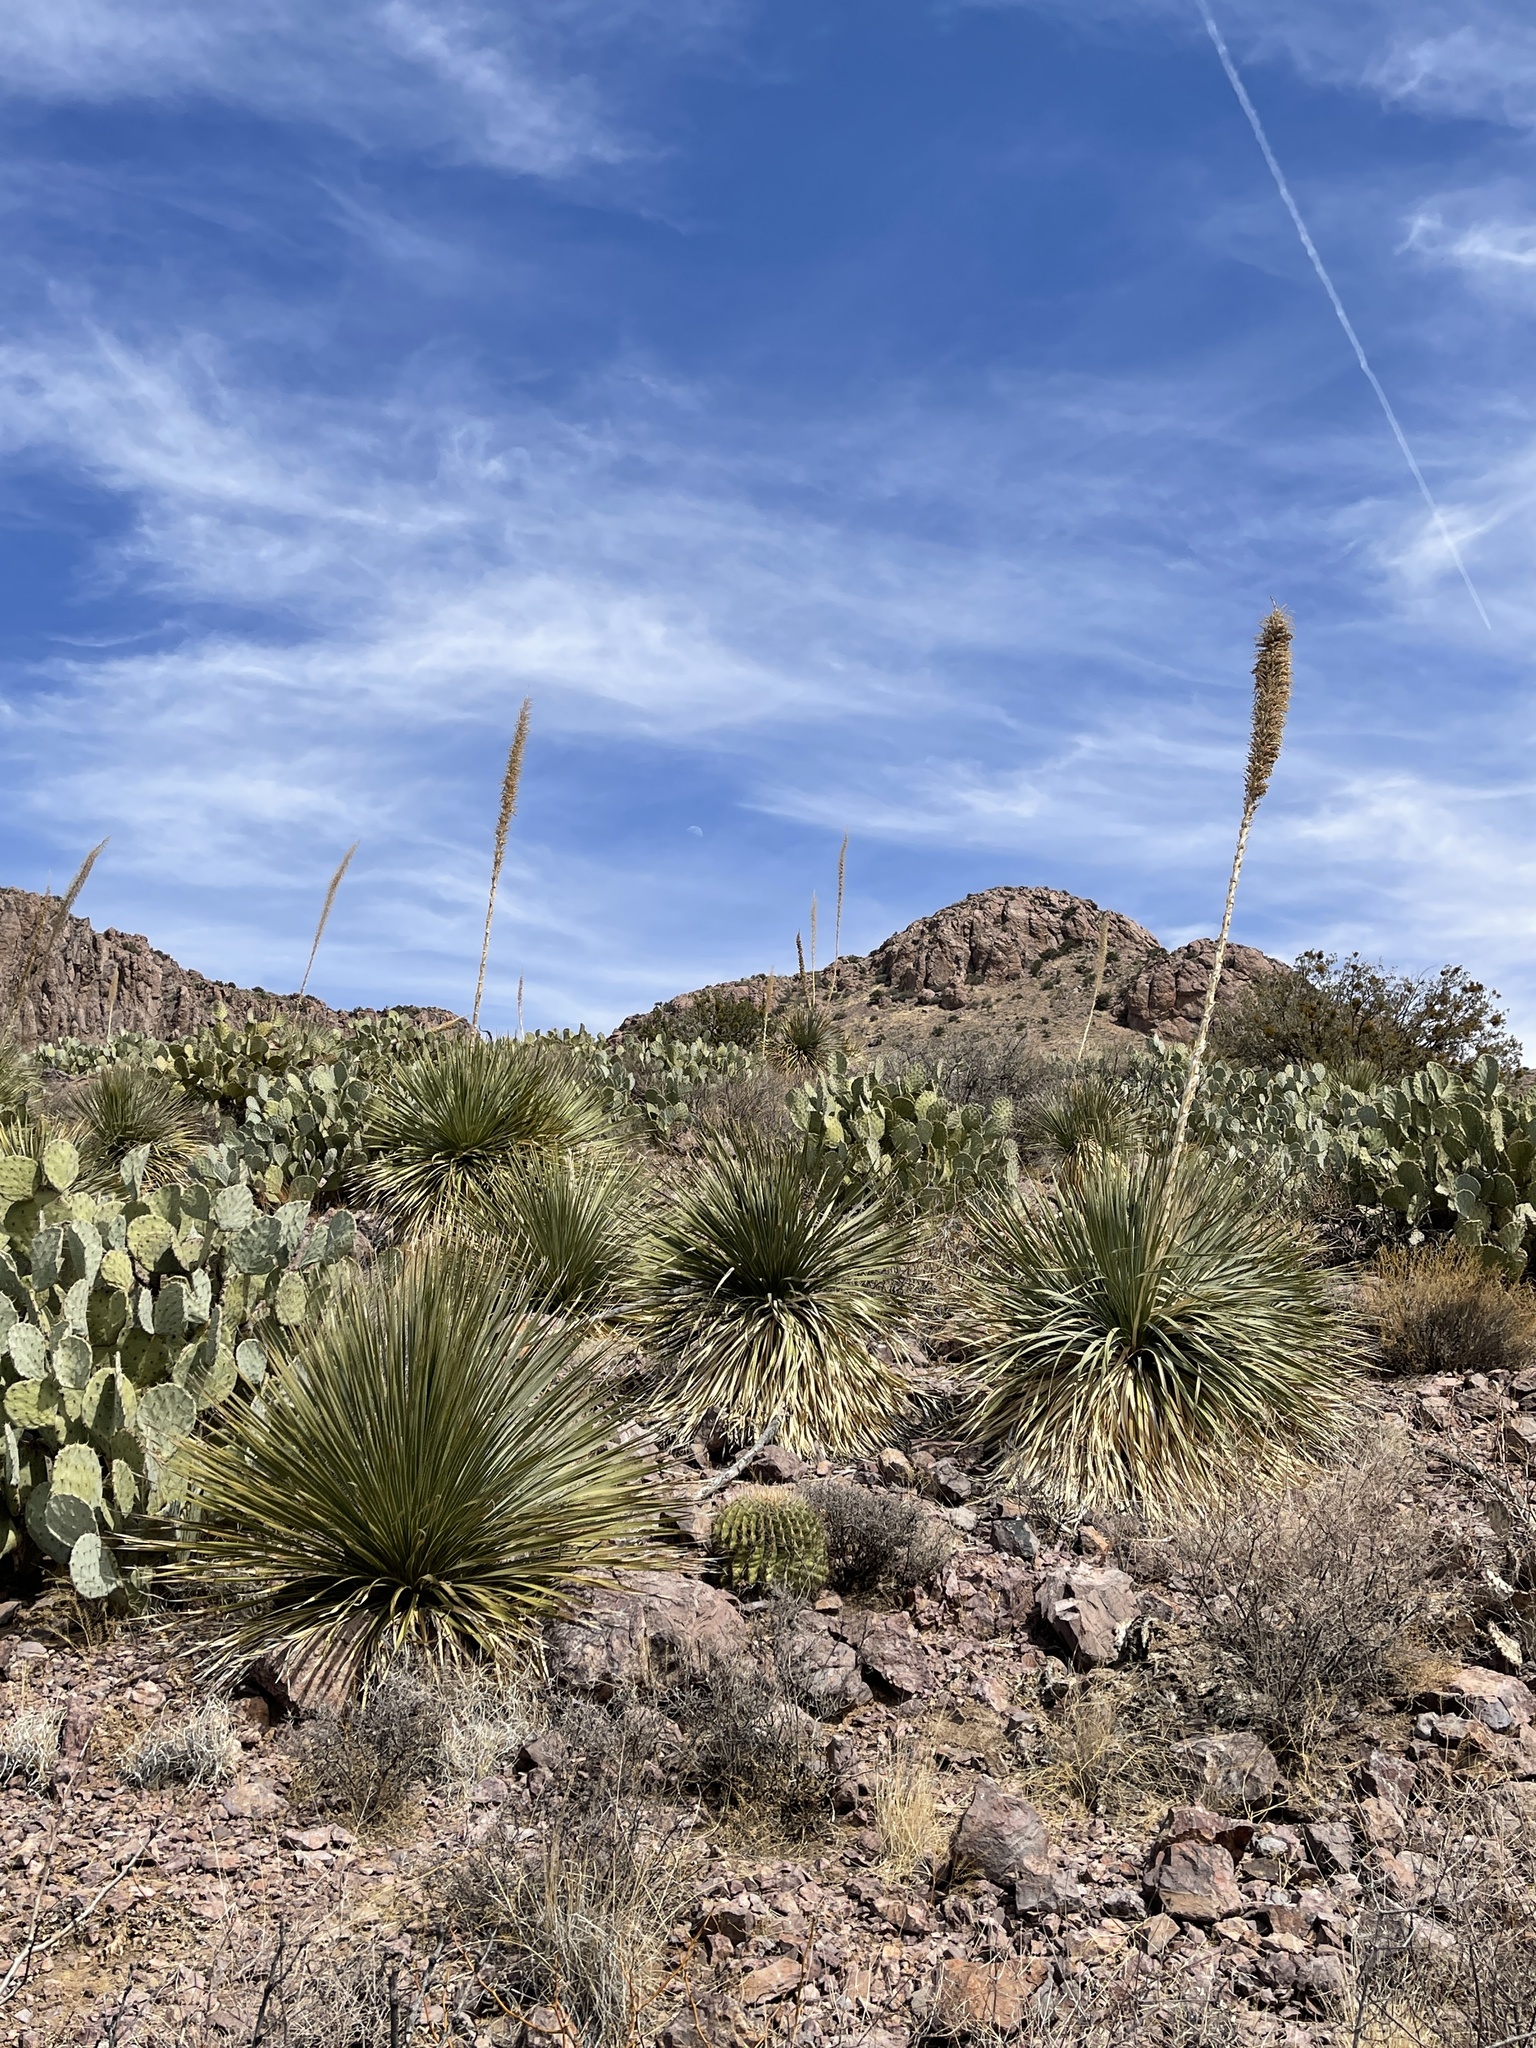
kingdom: Plantae
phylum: Tracheophyta
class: Liliopsida
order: Asparagales
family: Asparagaceae
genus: Dasylirion
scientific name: Dasylirion wheeleri
